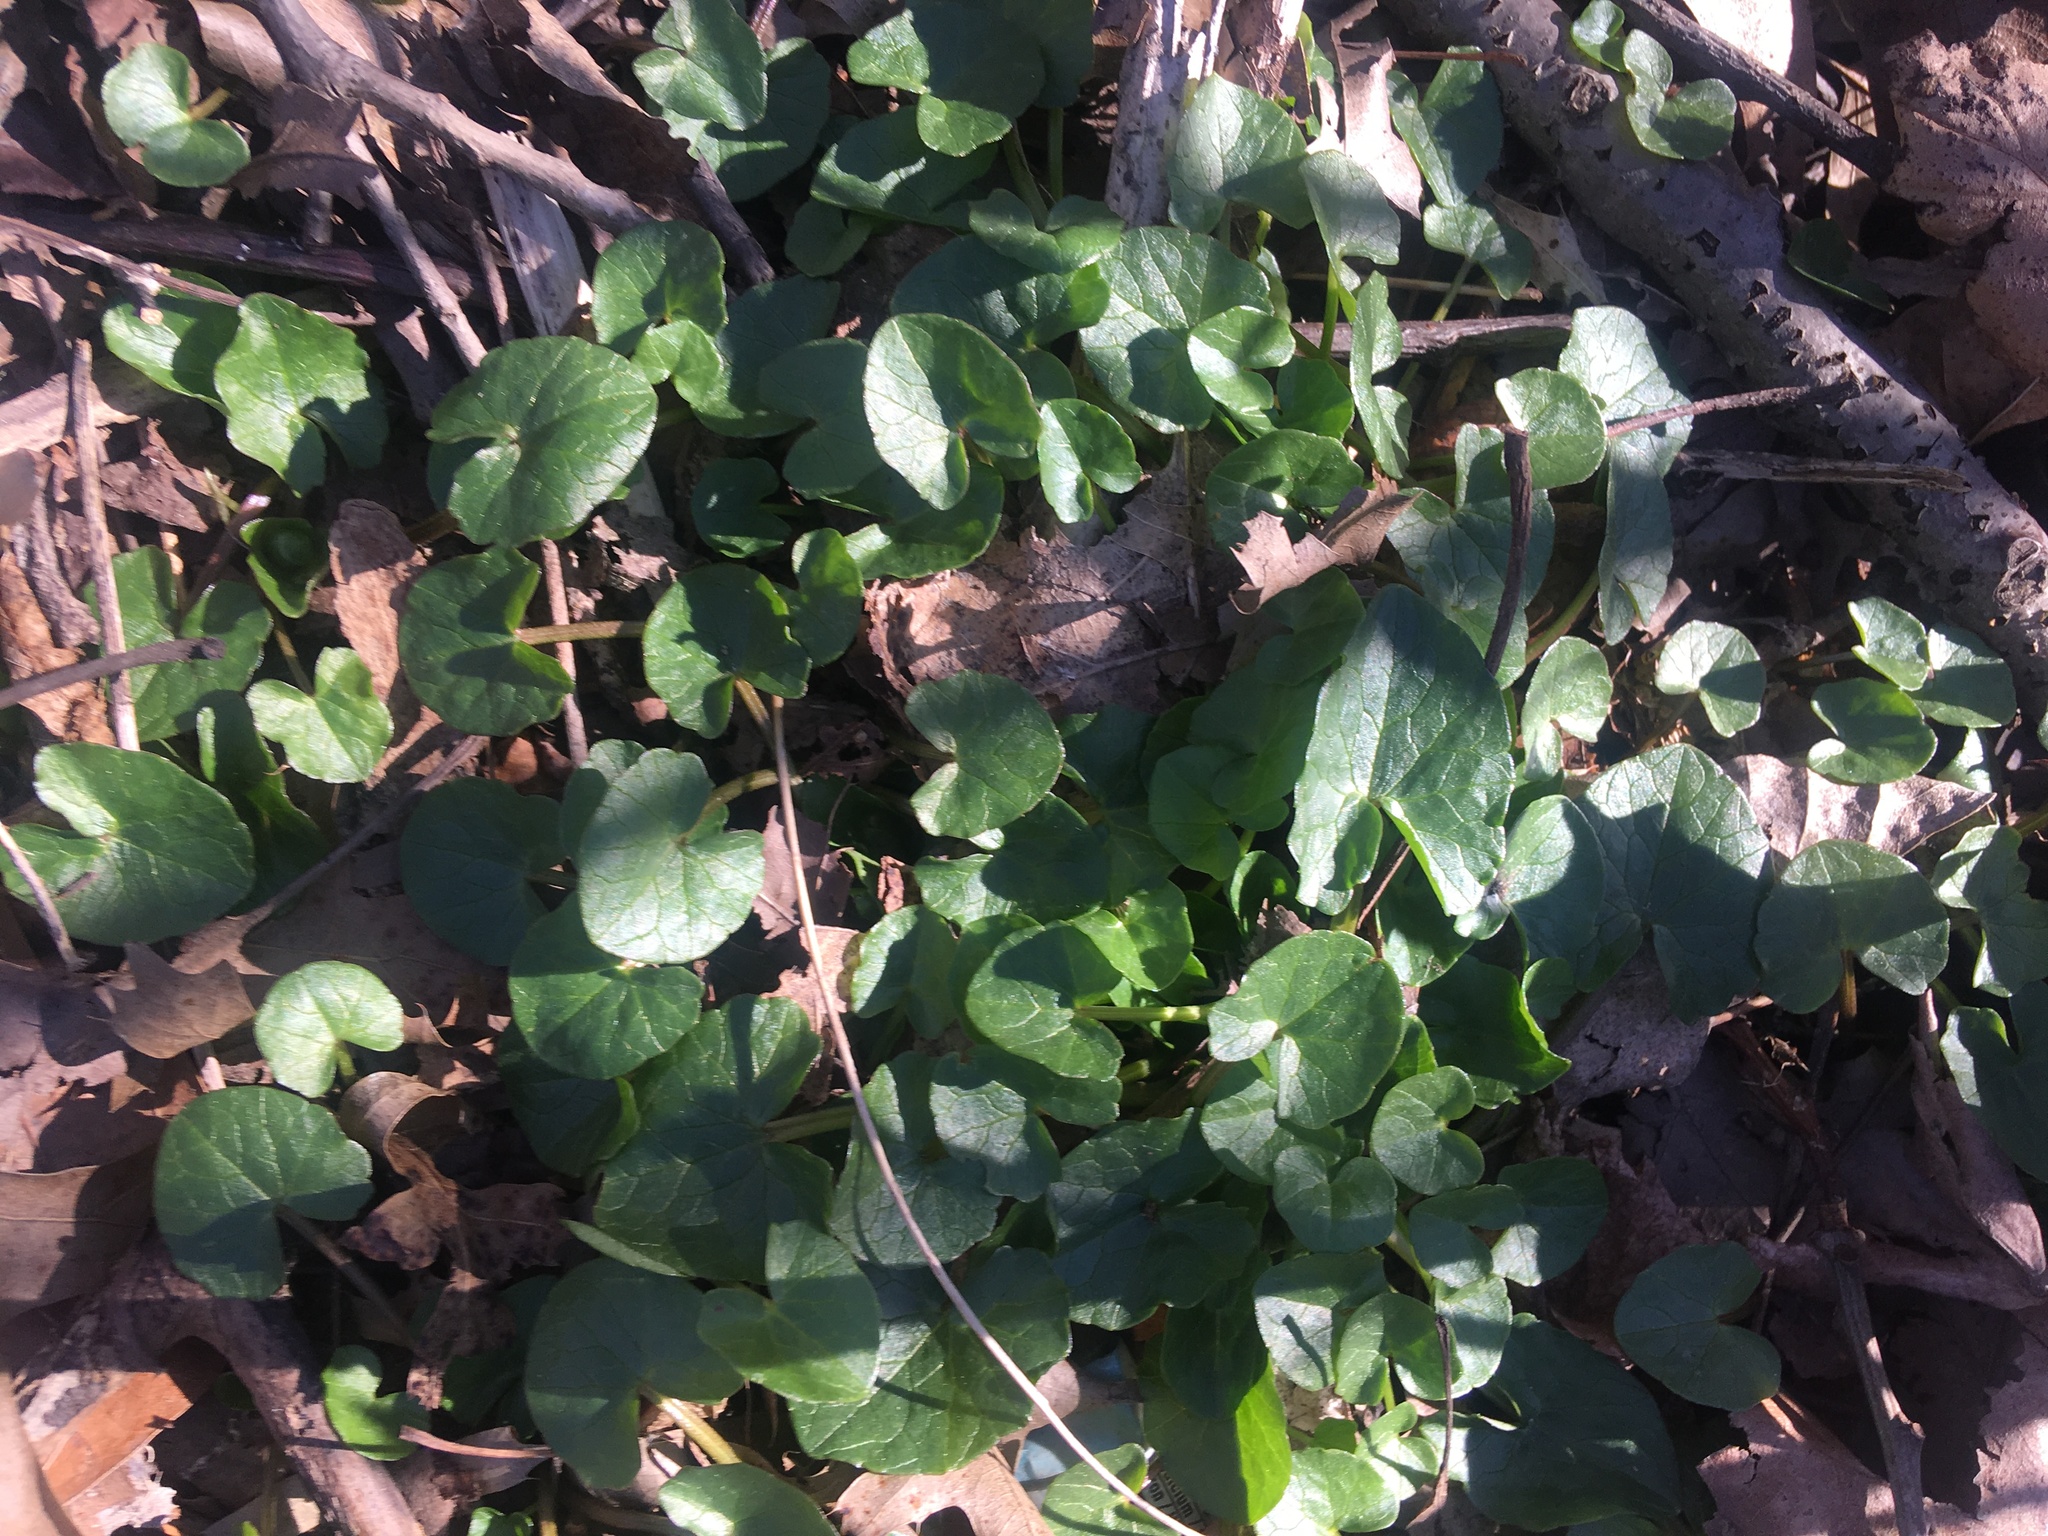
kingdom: Plantae
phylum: Tracheophyta
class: Magnoliopsida
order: Ranunculales
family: Ranunculaceae
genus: Ficaria
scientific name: Ficaria verna
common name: Lesser celandine
